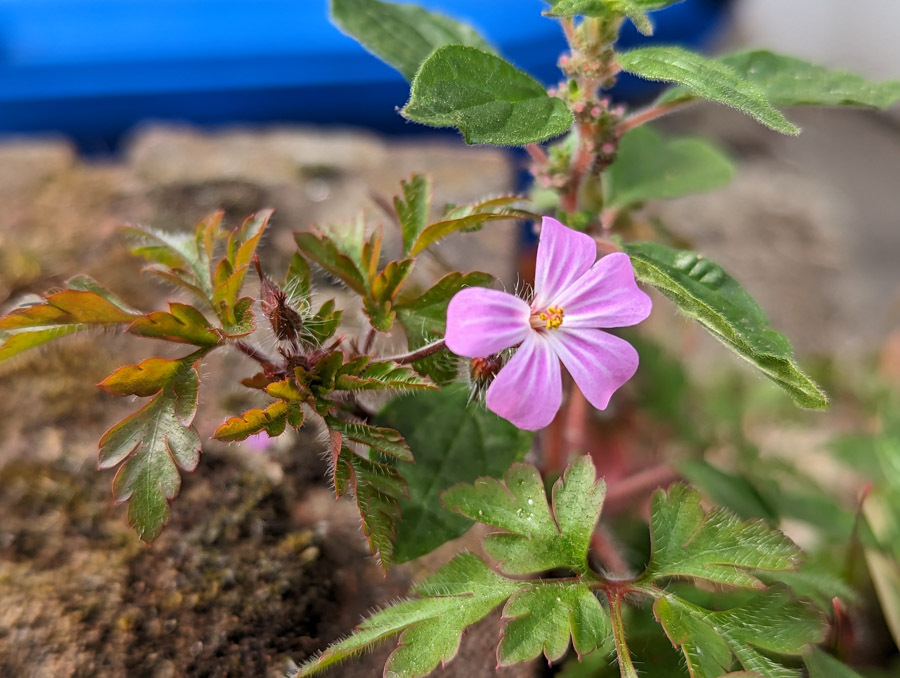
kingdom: Plantae
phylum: Tracheophyta
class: Magnoliopsida
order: Geraniales
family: Geraniaceae
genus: Geranium
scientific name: Geranium robertianum
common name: Herb-robert
